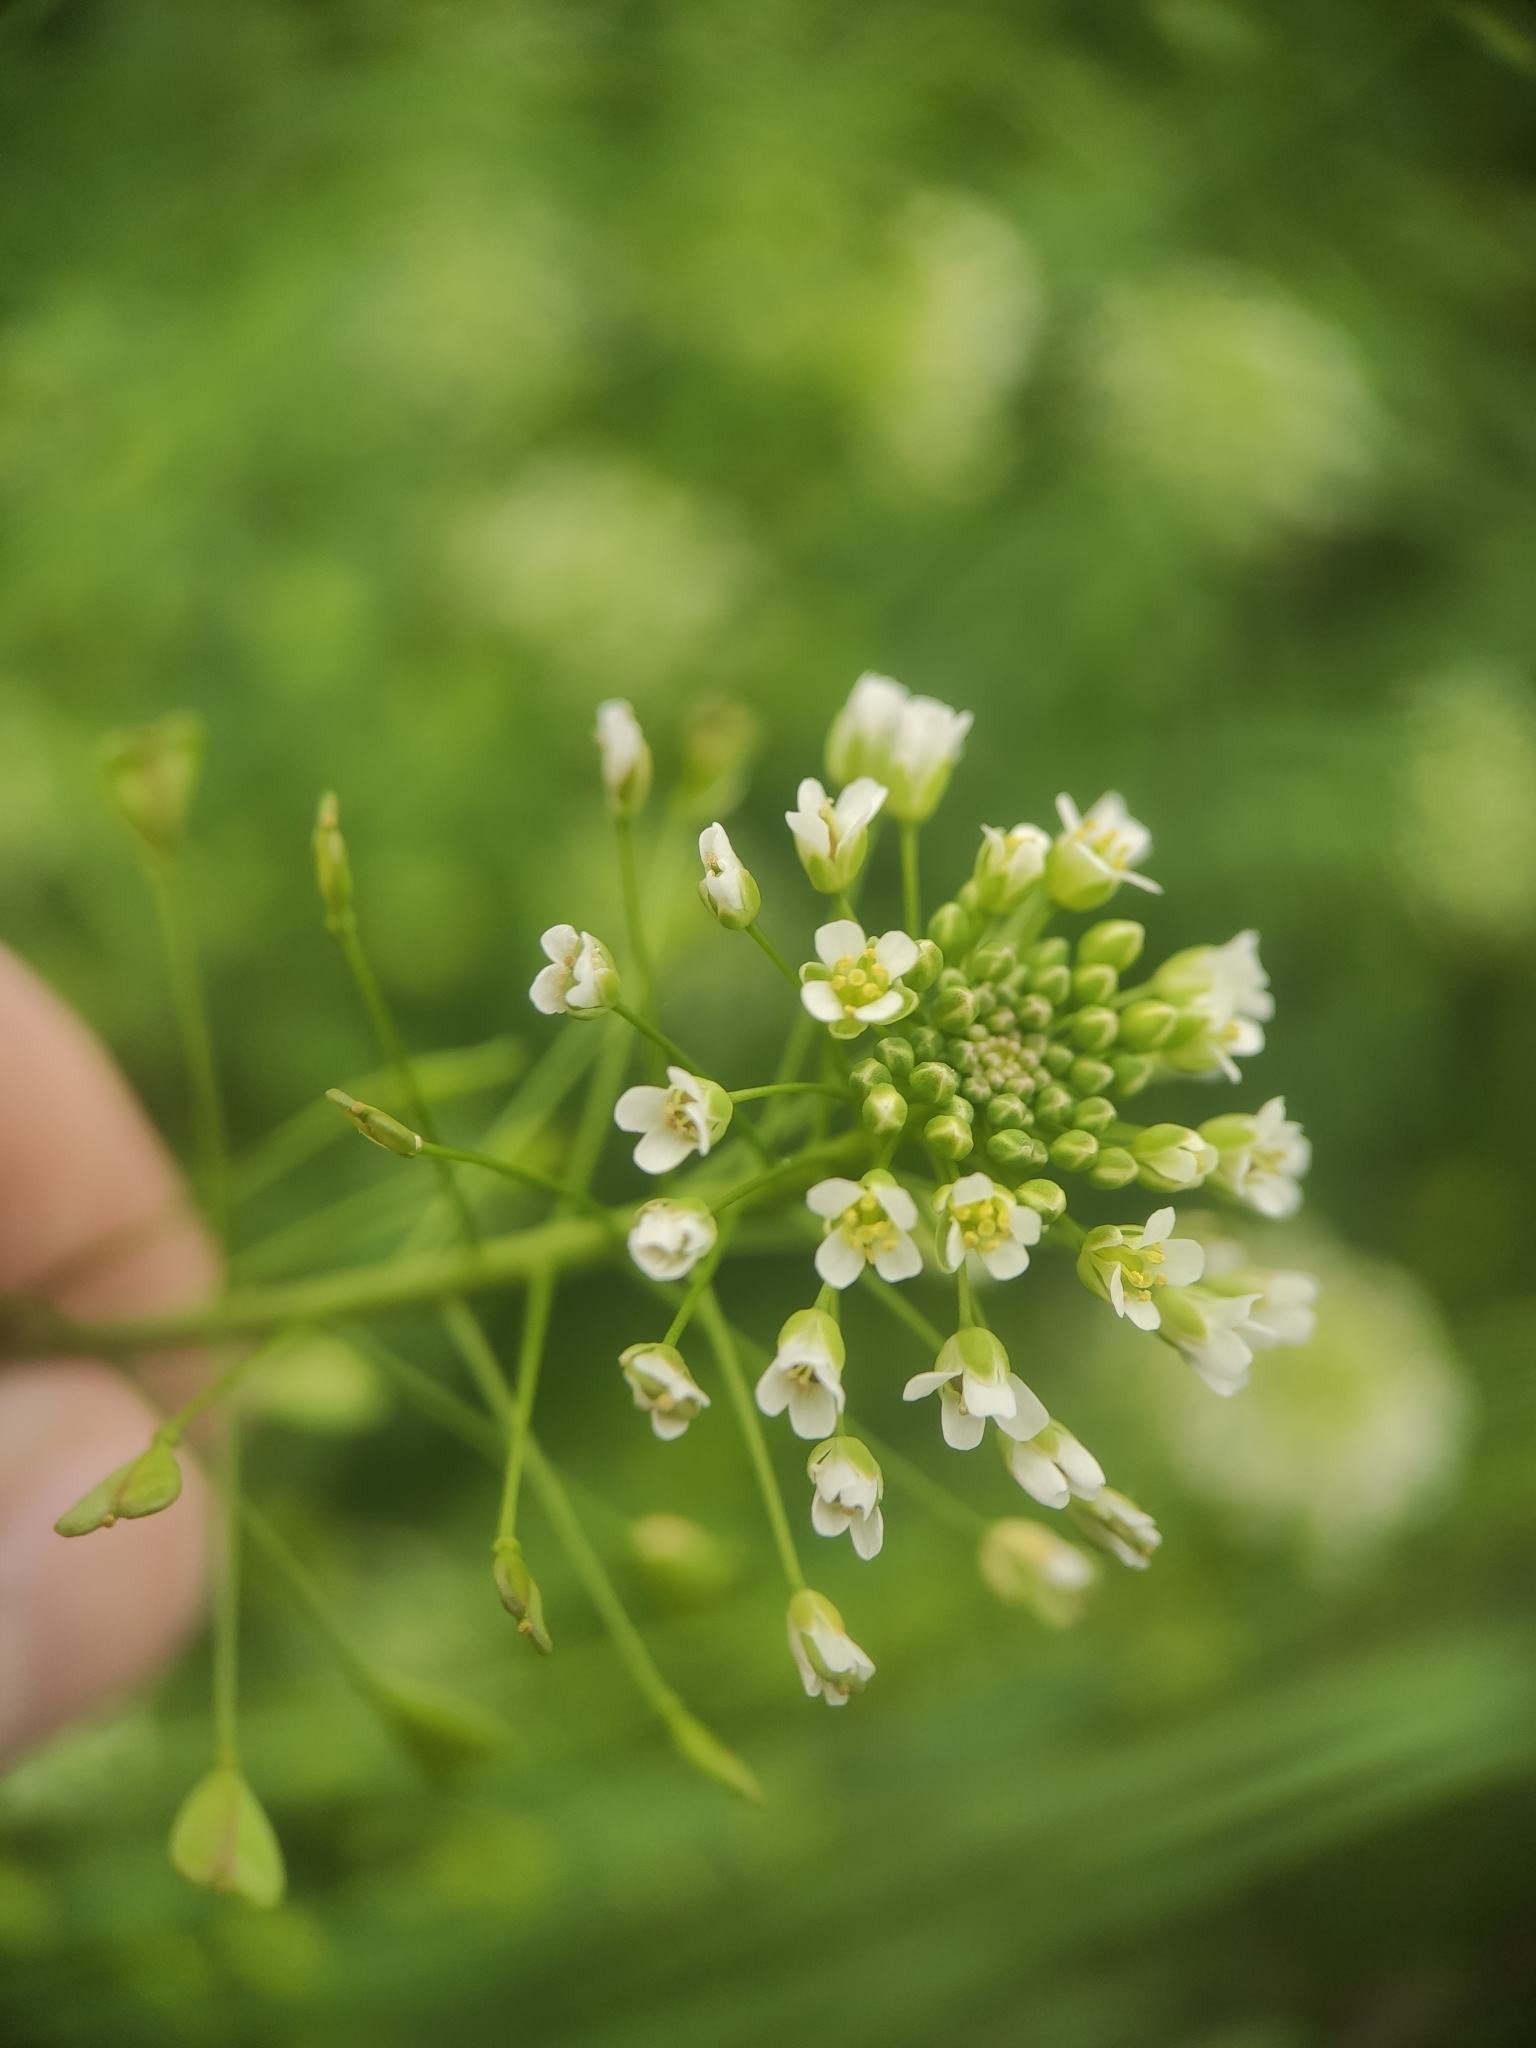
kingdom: Plantae
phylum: Tracheophyta
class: Magnoliopsida
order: Brassicales
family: Brassicaceae
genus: Capsella
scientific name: Capsella bursa-pastoris
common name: Shepherd's purse
